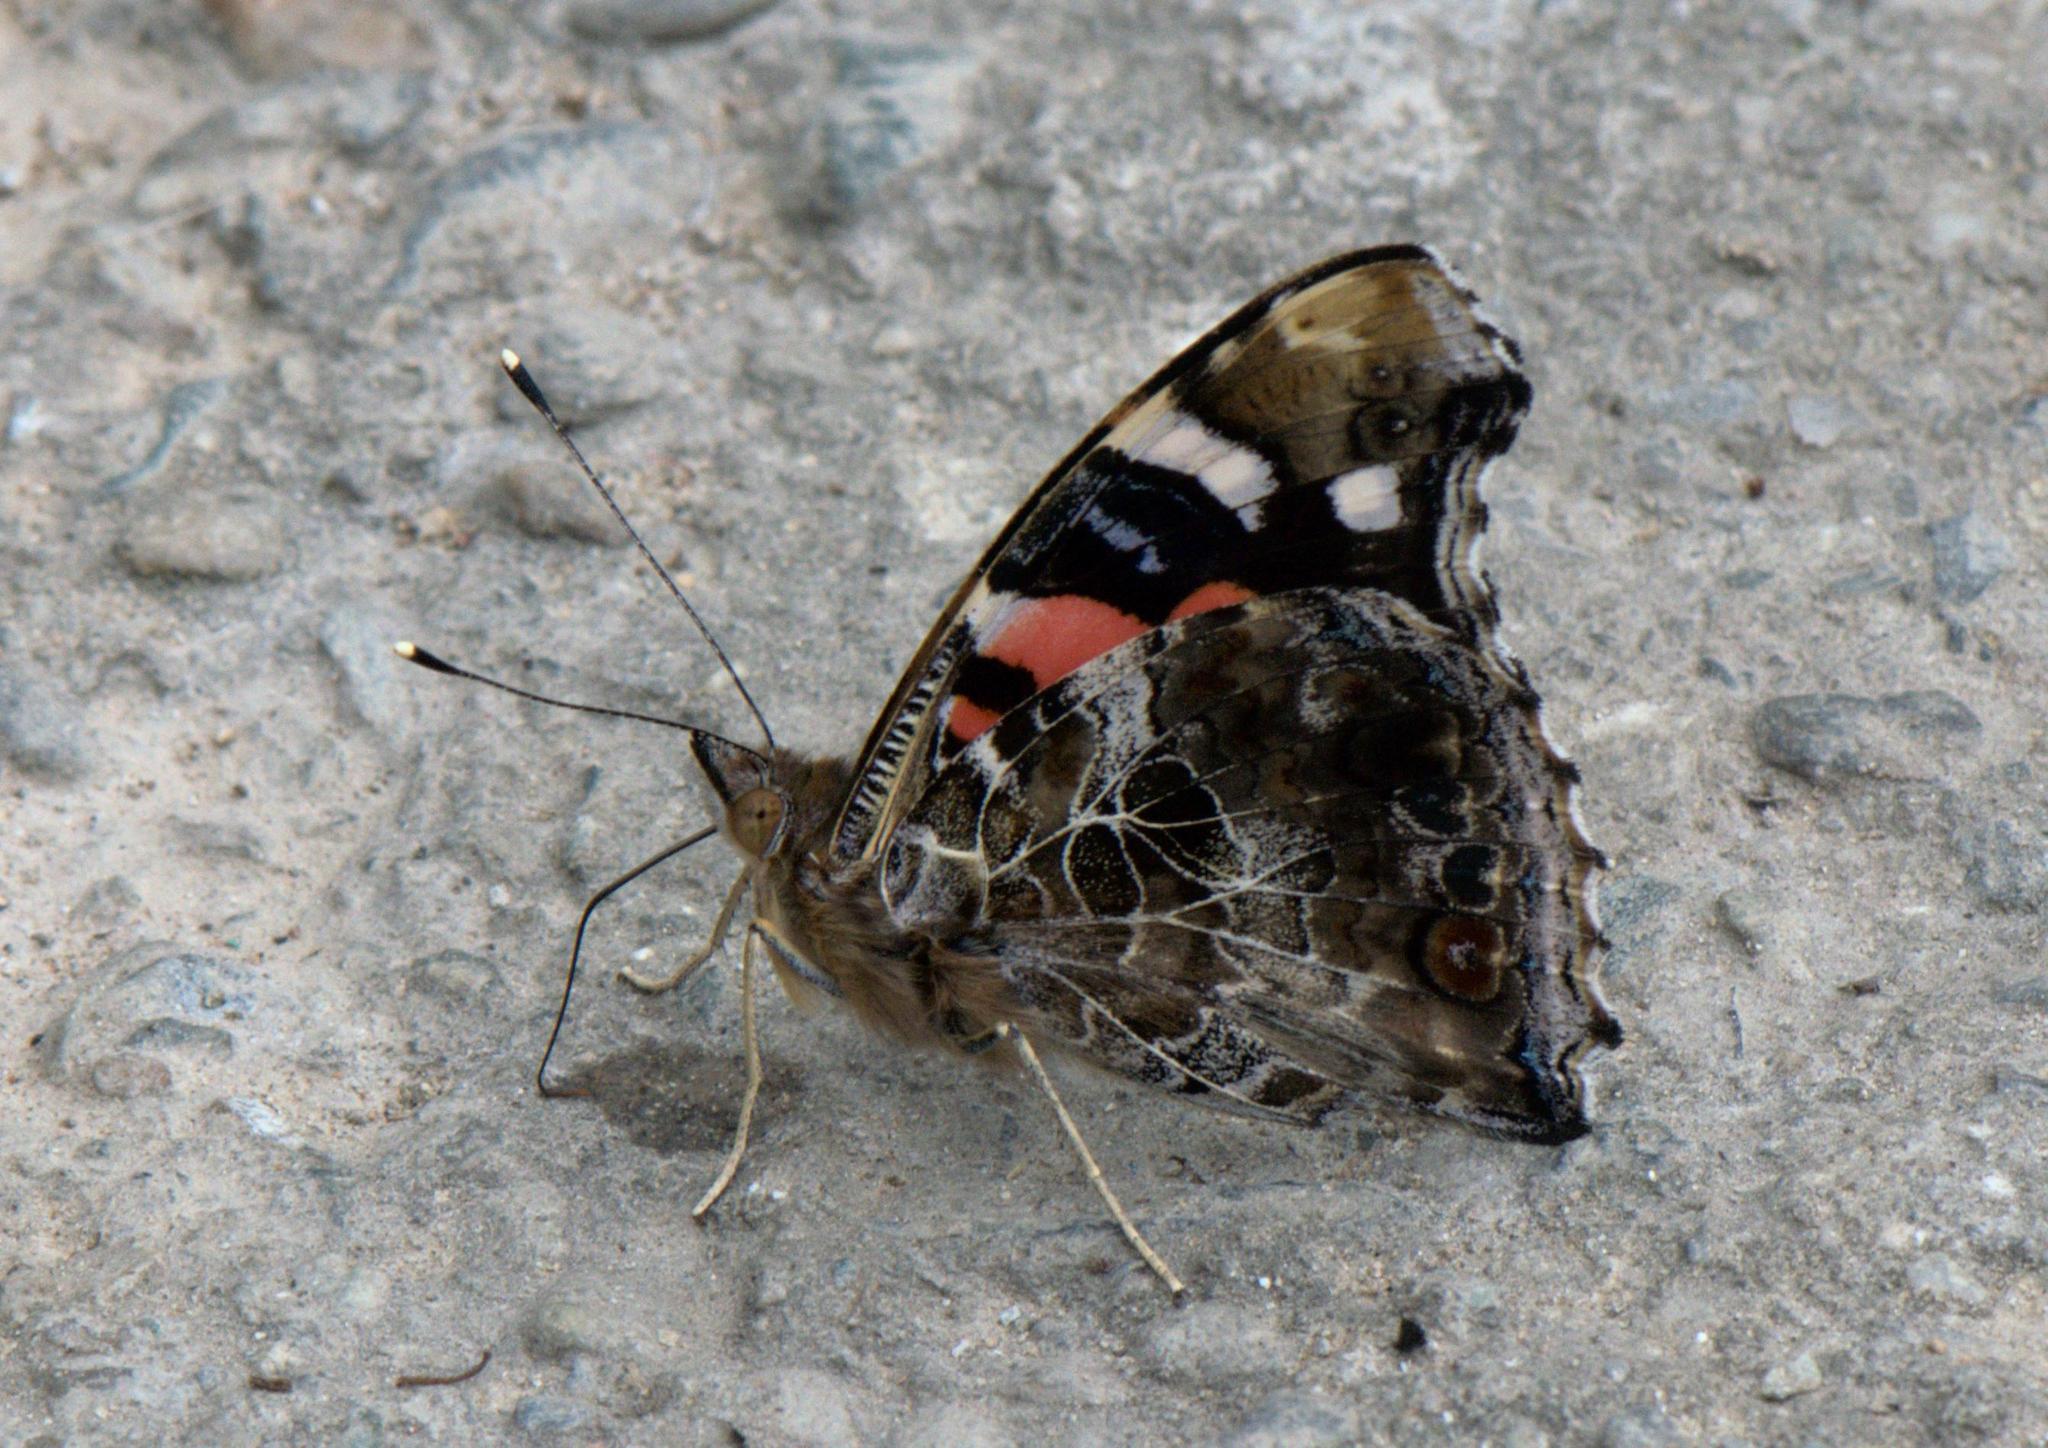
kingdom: Animalia
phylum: Arthropoda
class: Insecta
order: Lepidoptera
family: Nymphalidae
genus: Vanessa
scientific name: Vanessa indica
